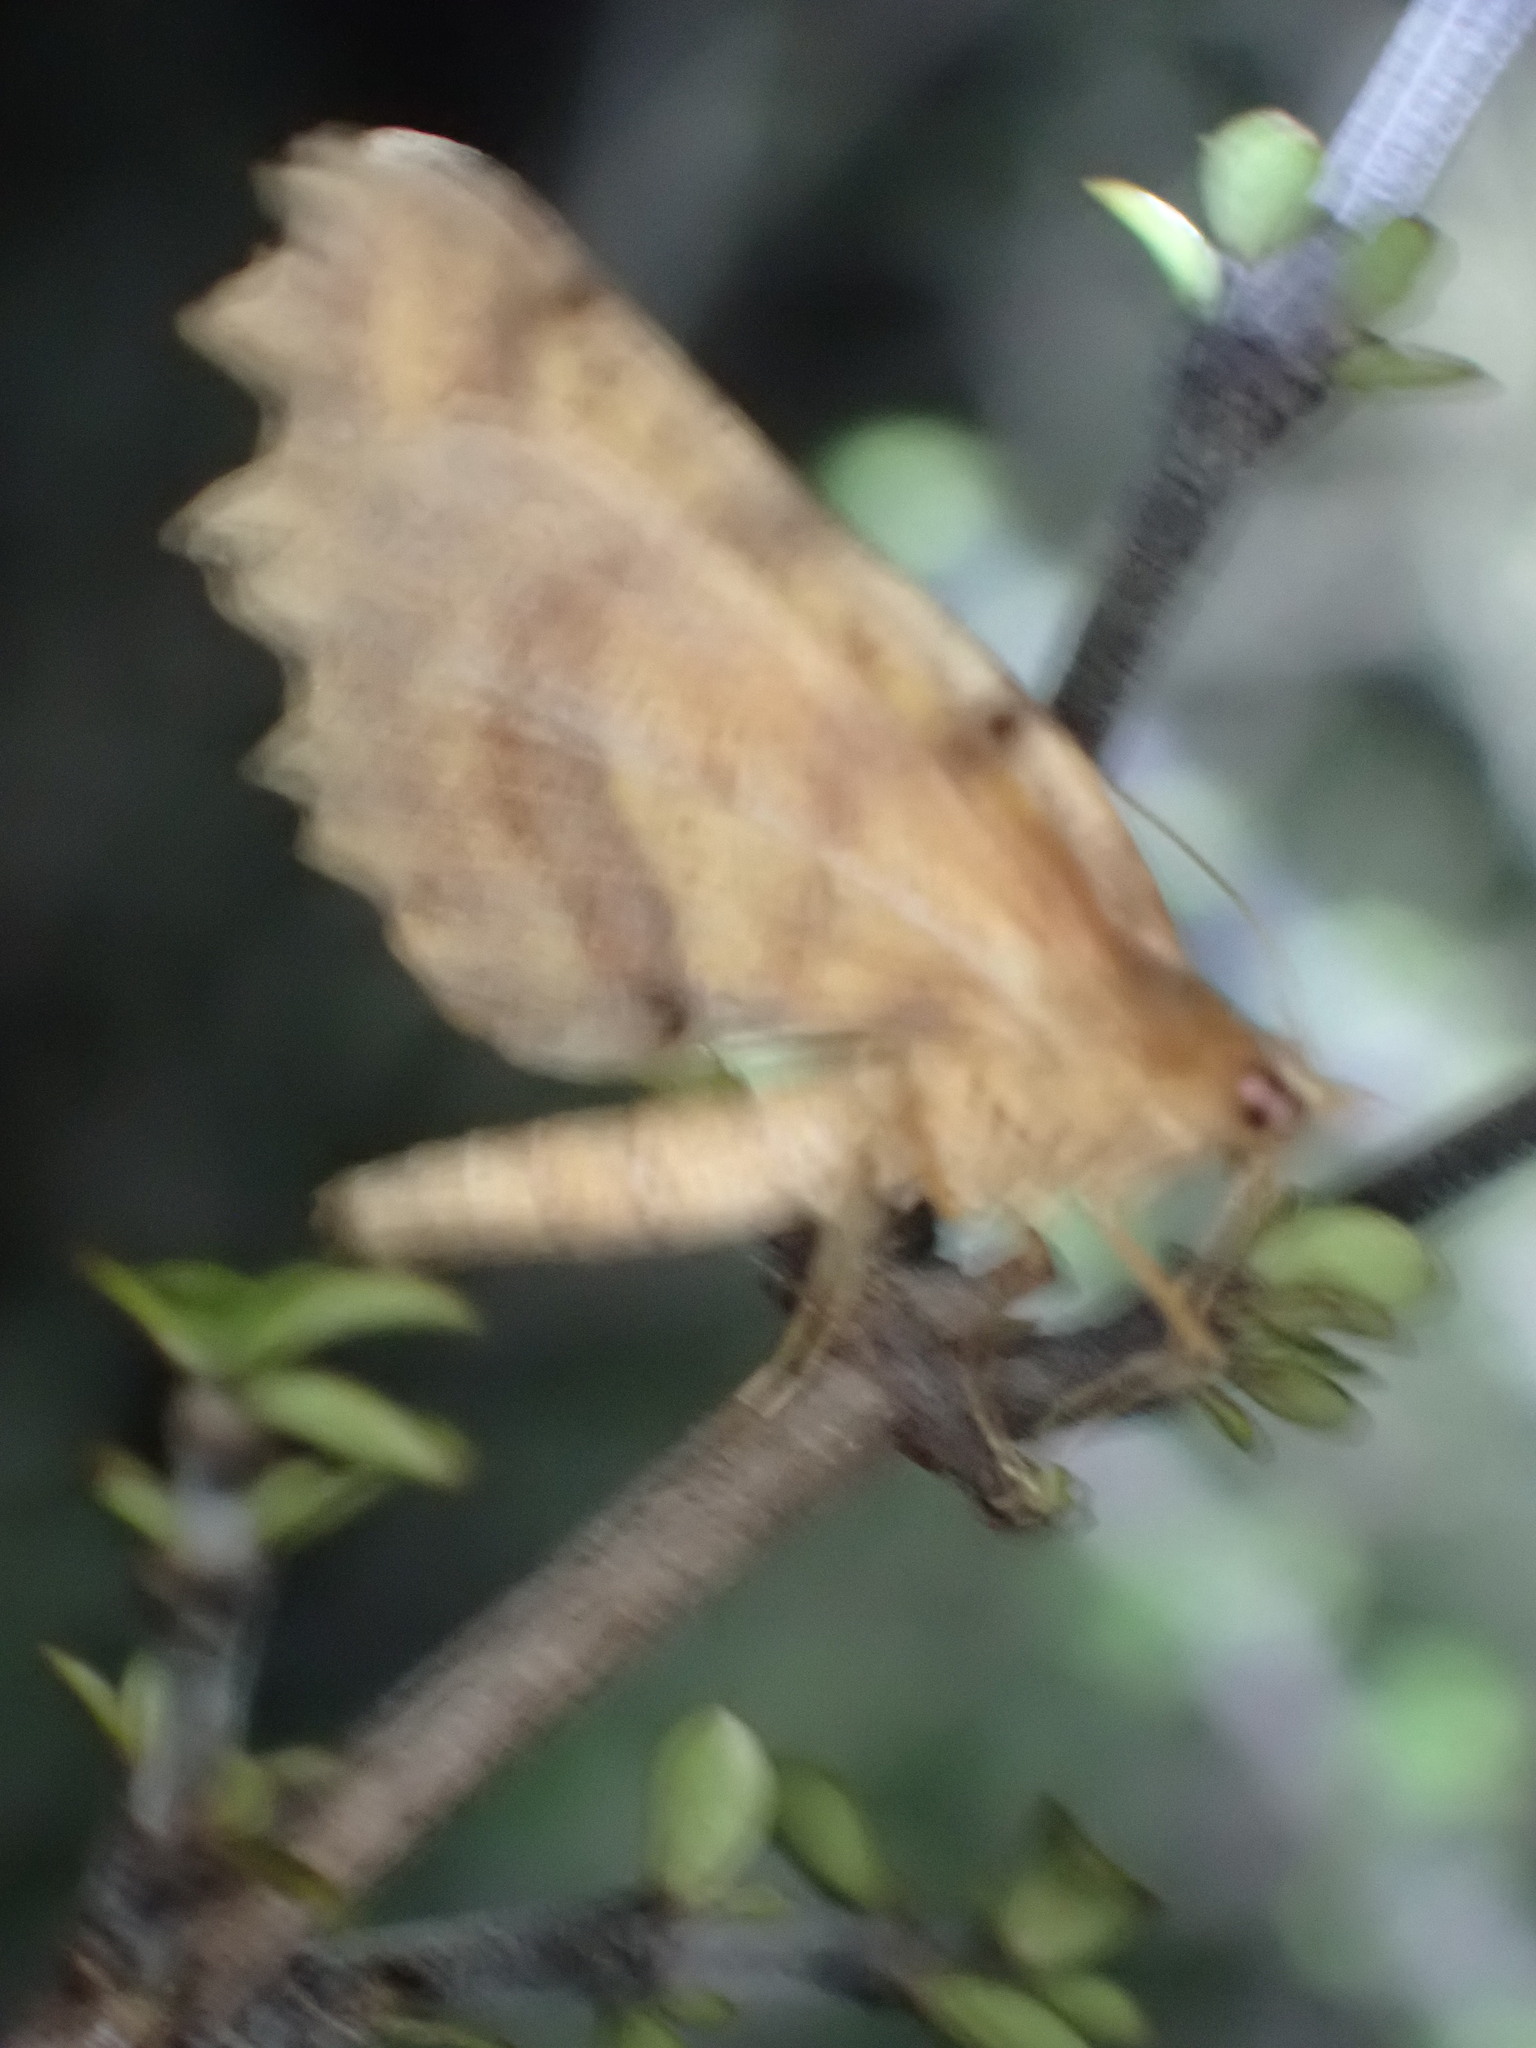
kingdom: Animalia
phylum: Arthropoda
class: Insecta
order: Lepidoptera
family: Geometridae
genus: Ischalis
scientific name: Ischalis fortinata
